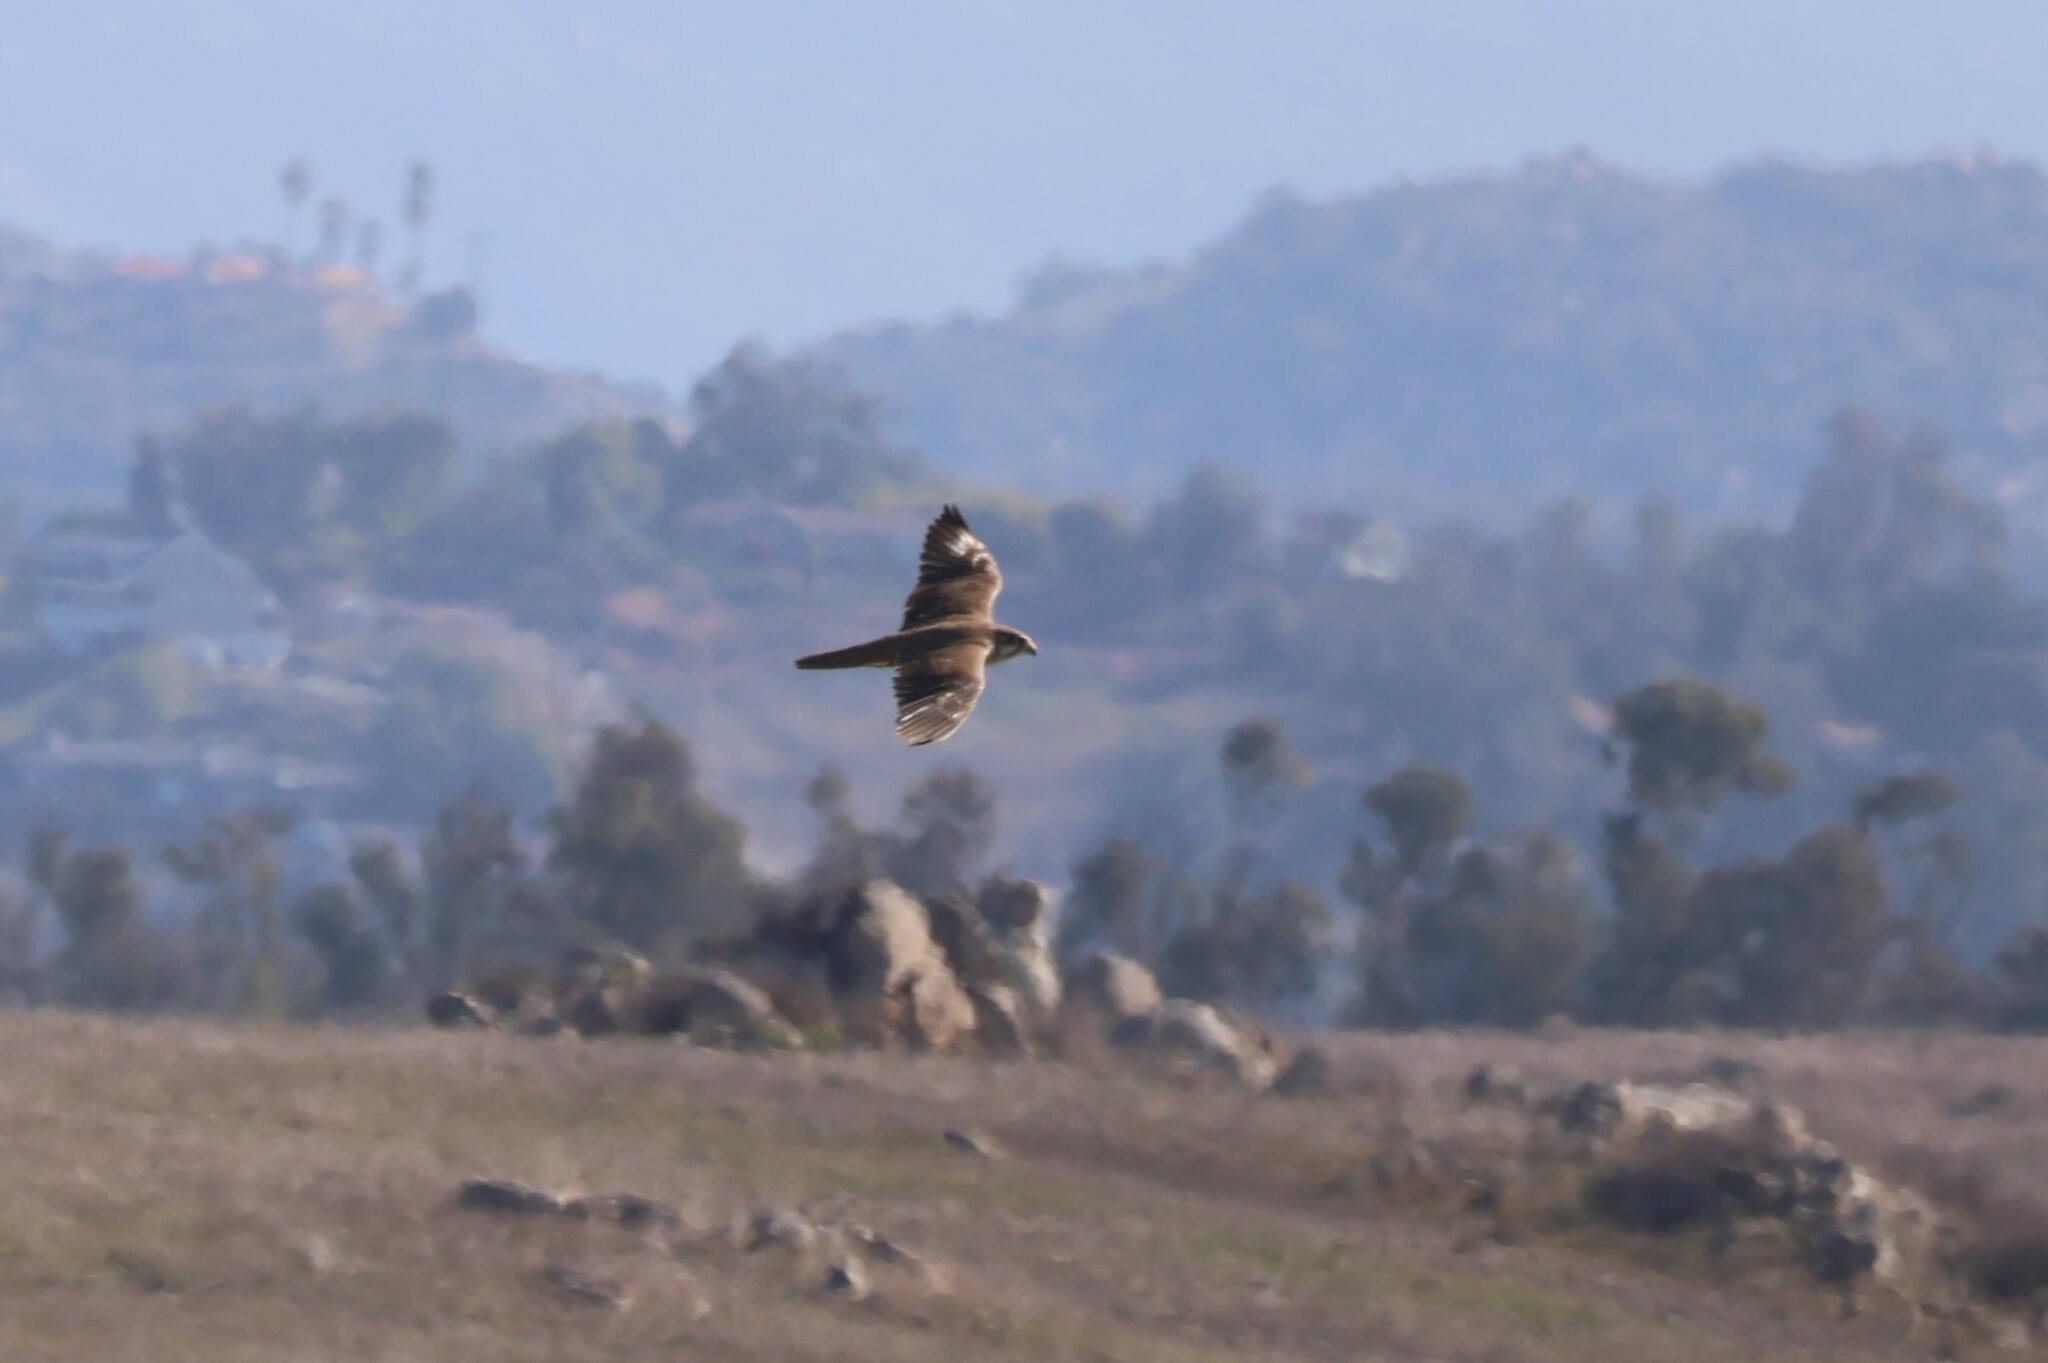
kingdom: Animalia
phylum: Chordata
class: Aves
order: Falconiformes
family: Falconidae
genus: Falco
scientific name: Falco mexicanus
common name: Prairie falcon
